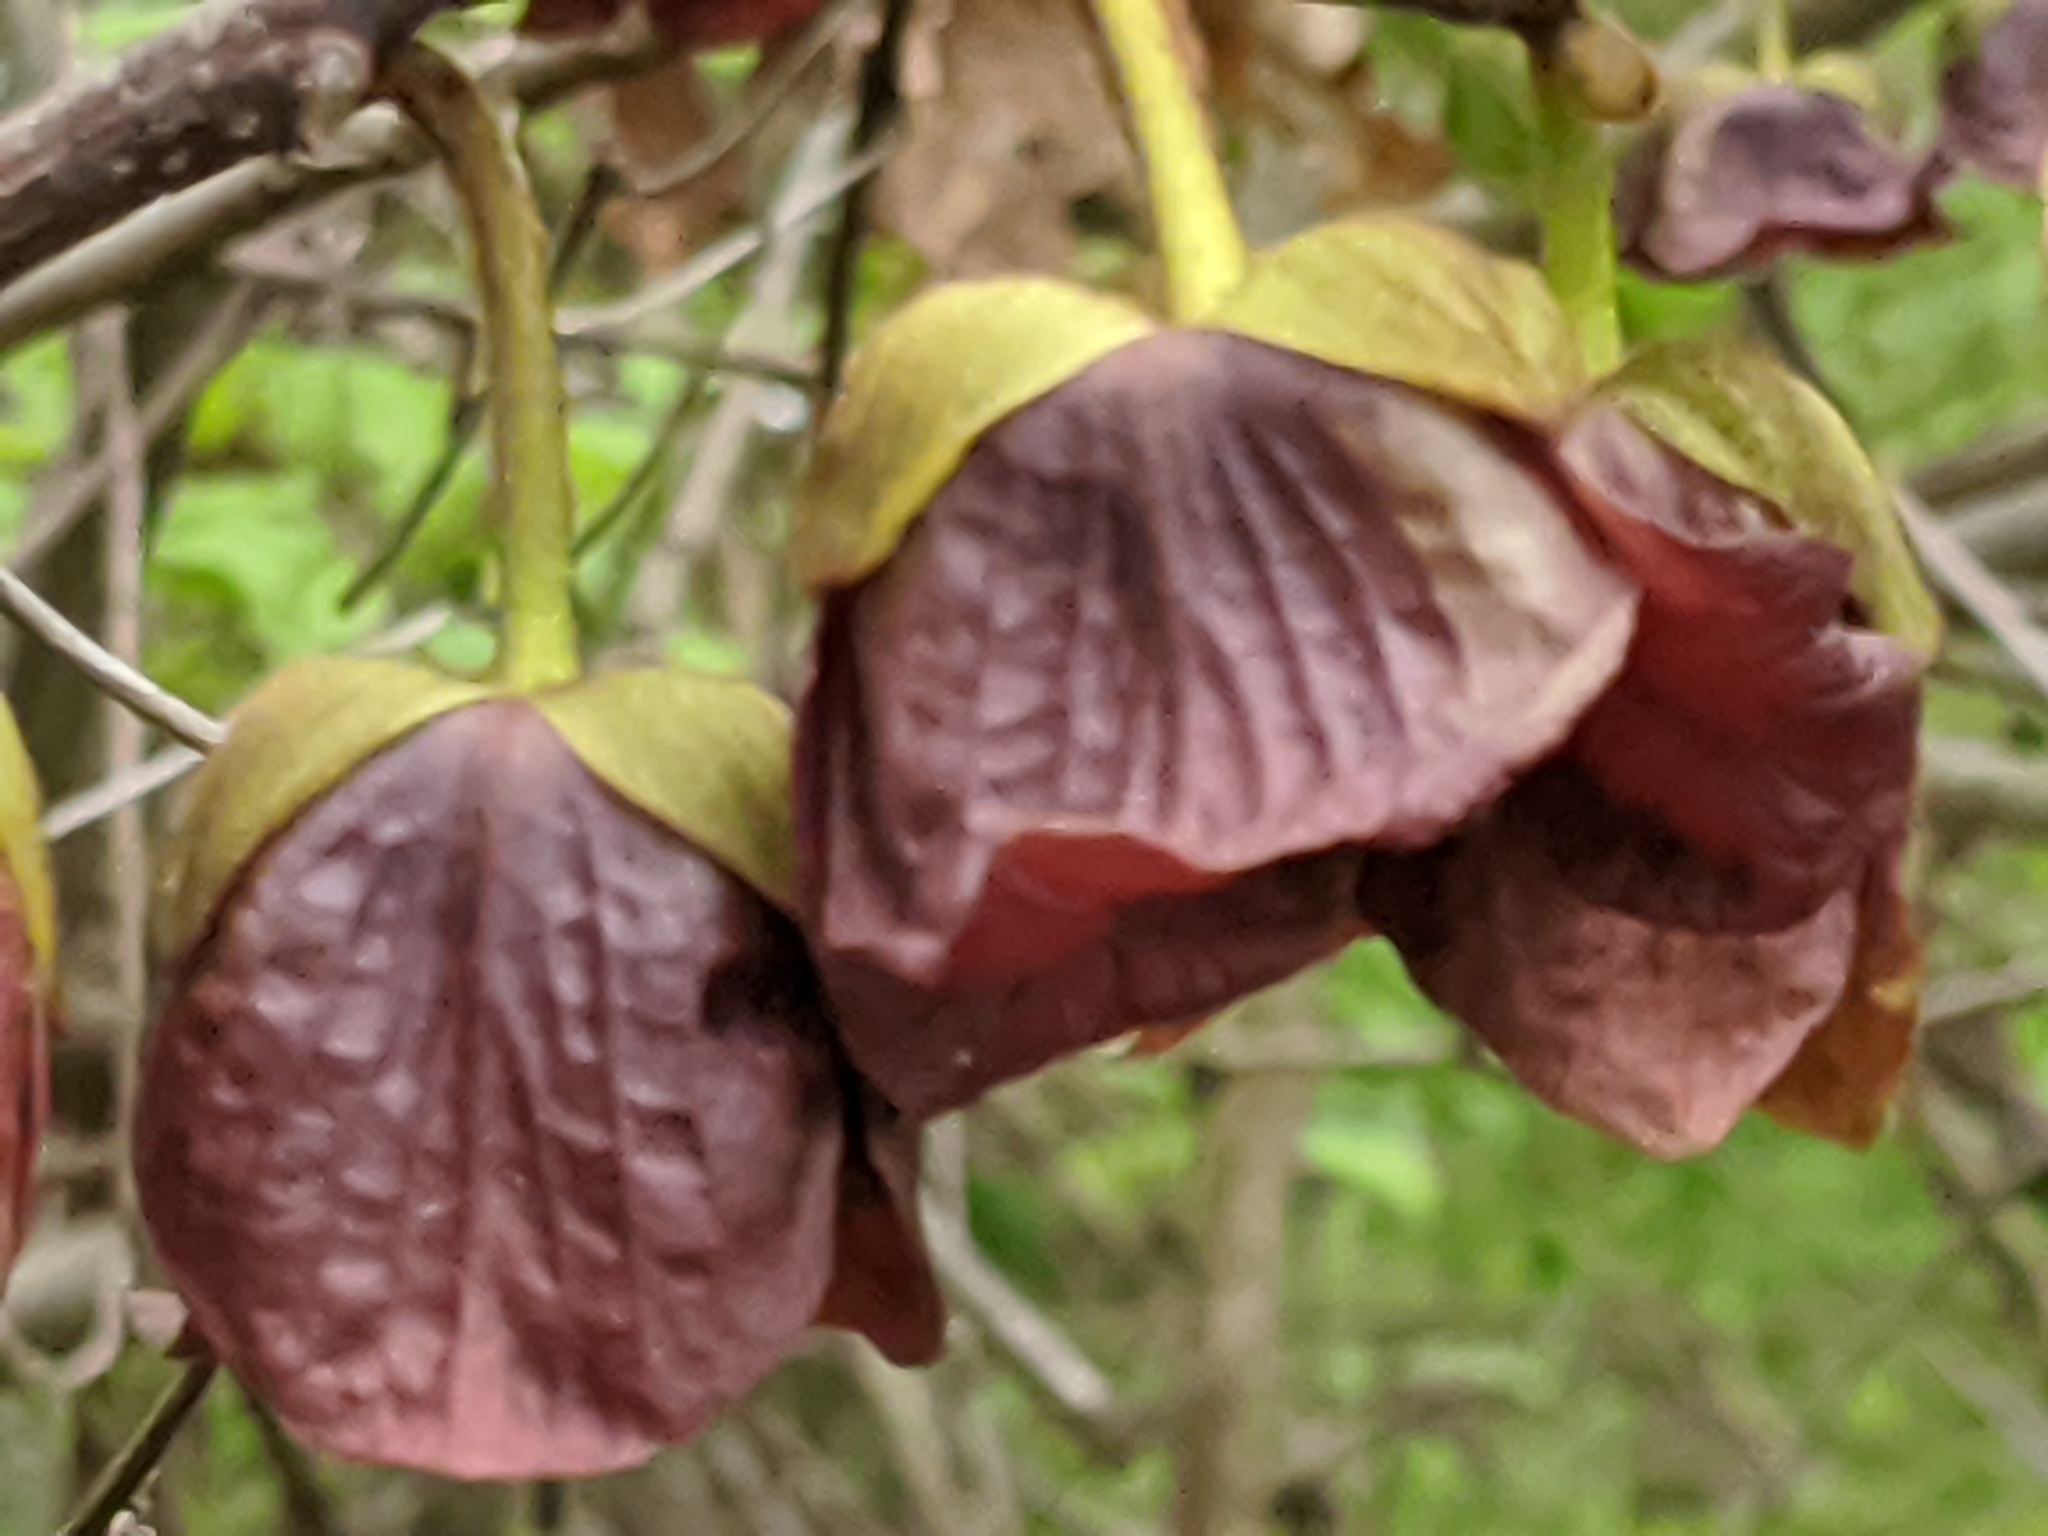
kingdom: Plantae
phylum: Tracheophyta
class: Magnoliopsida
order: Magnoliales
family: Annonaceae
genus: Asimina
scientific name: Asimina triloba
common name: Dog-banana
